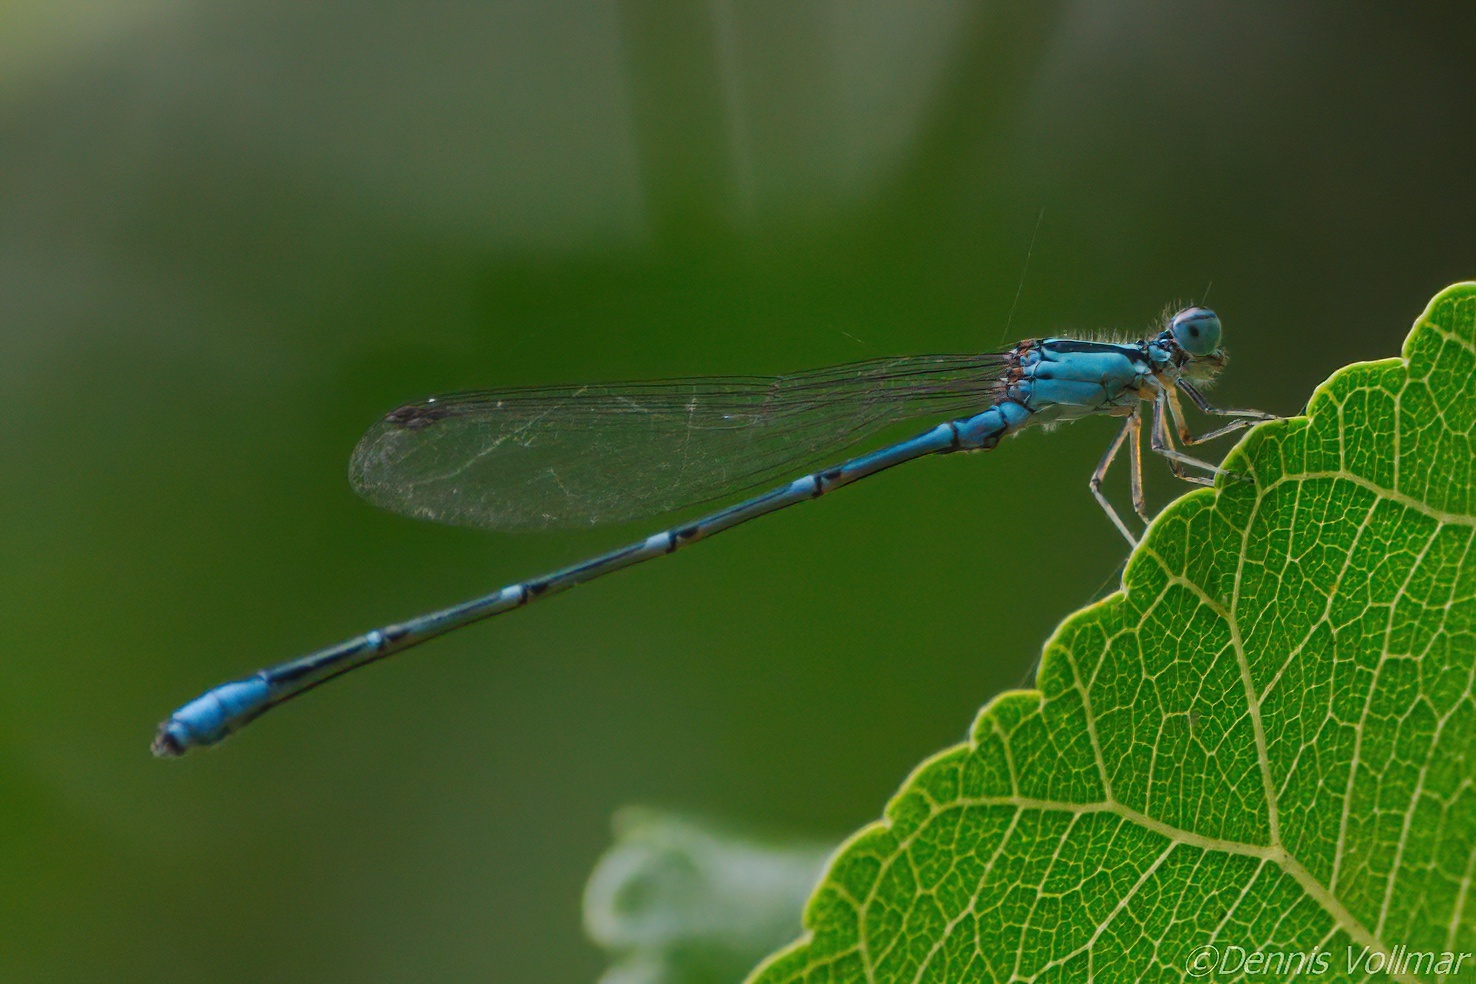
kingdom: Animalia
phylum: Arthropoda
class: Insecta
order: Odonata
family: Coenagrionidae
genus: Enallagma
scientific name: Enallagma exsulans
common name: Stream bluet
